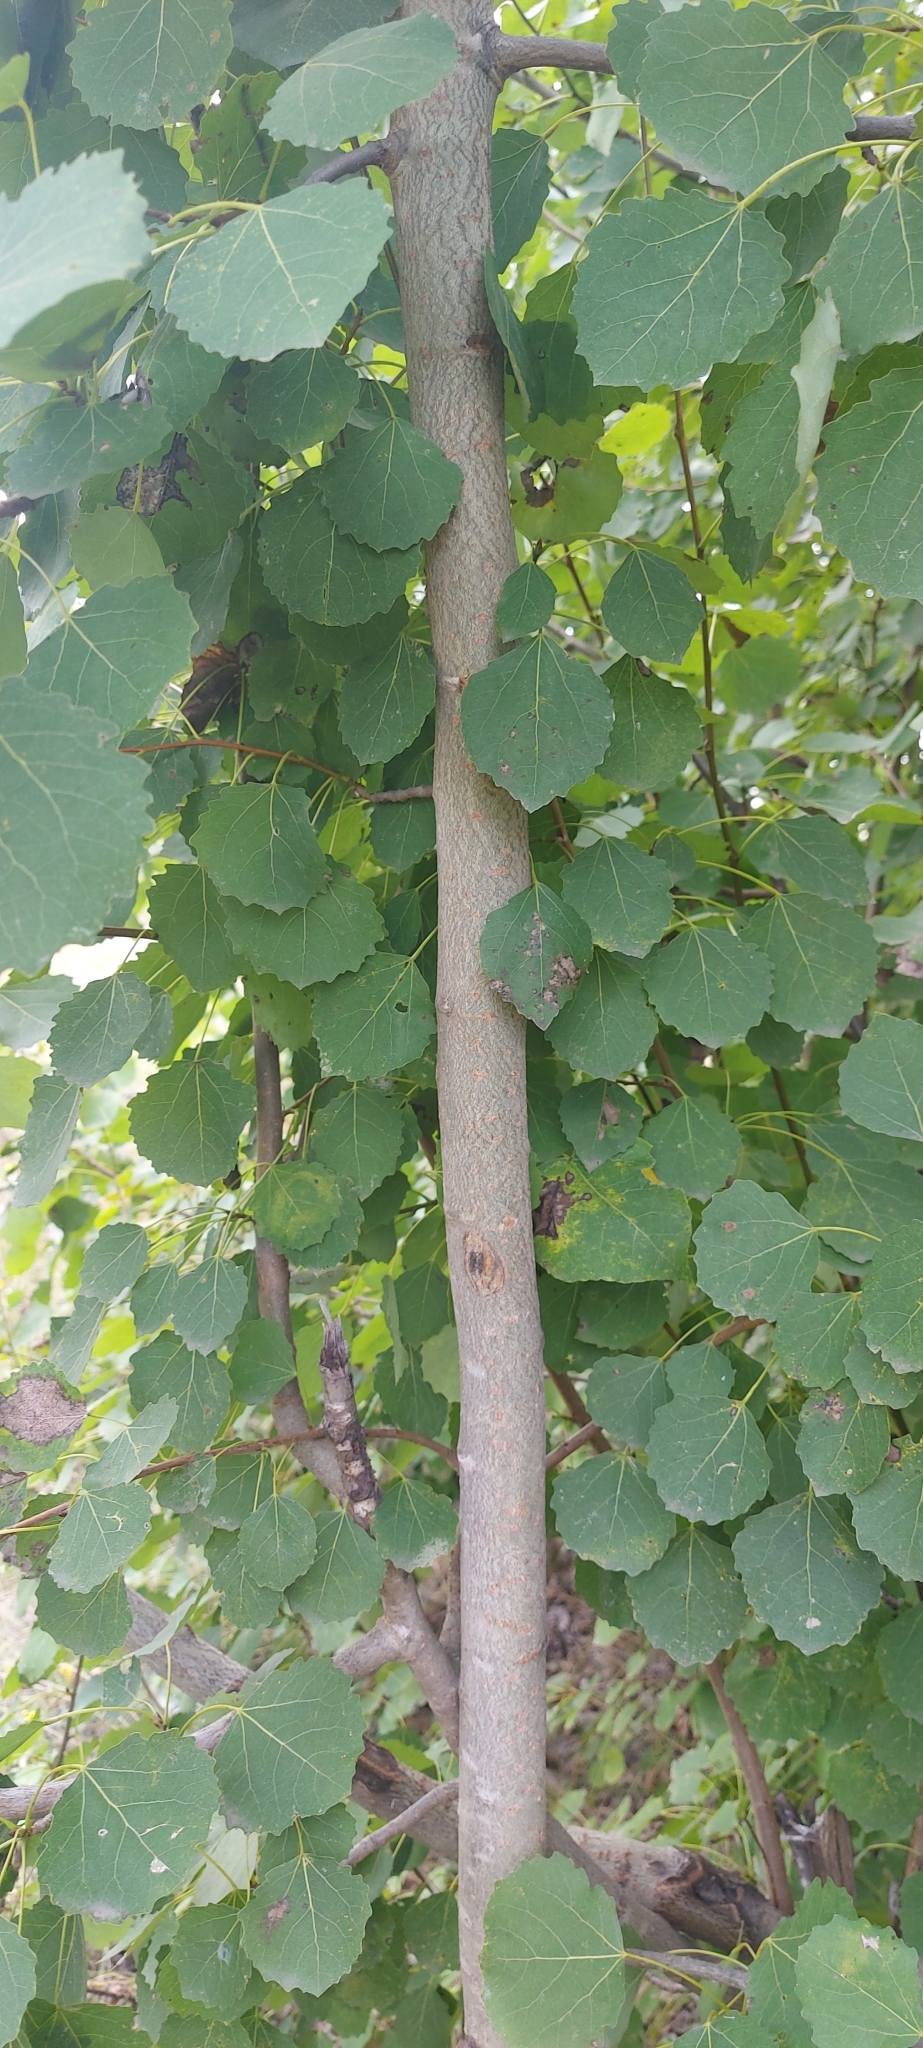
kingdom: Plantae
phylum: Tracheophyta
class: Magnoliopsida
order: Malpighiales
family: Salicaceae
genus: Populus
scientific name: Populus tremula
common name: European aspen
